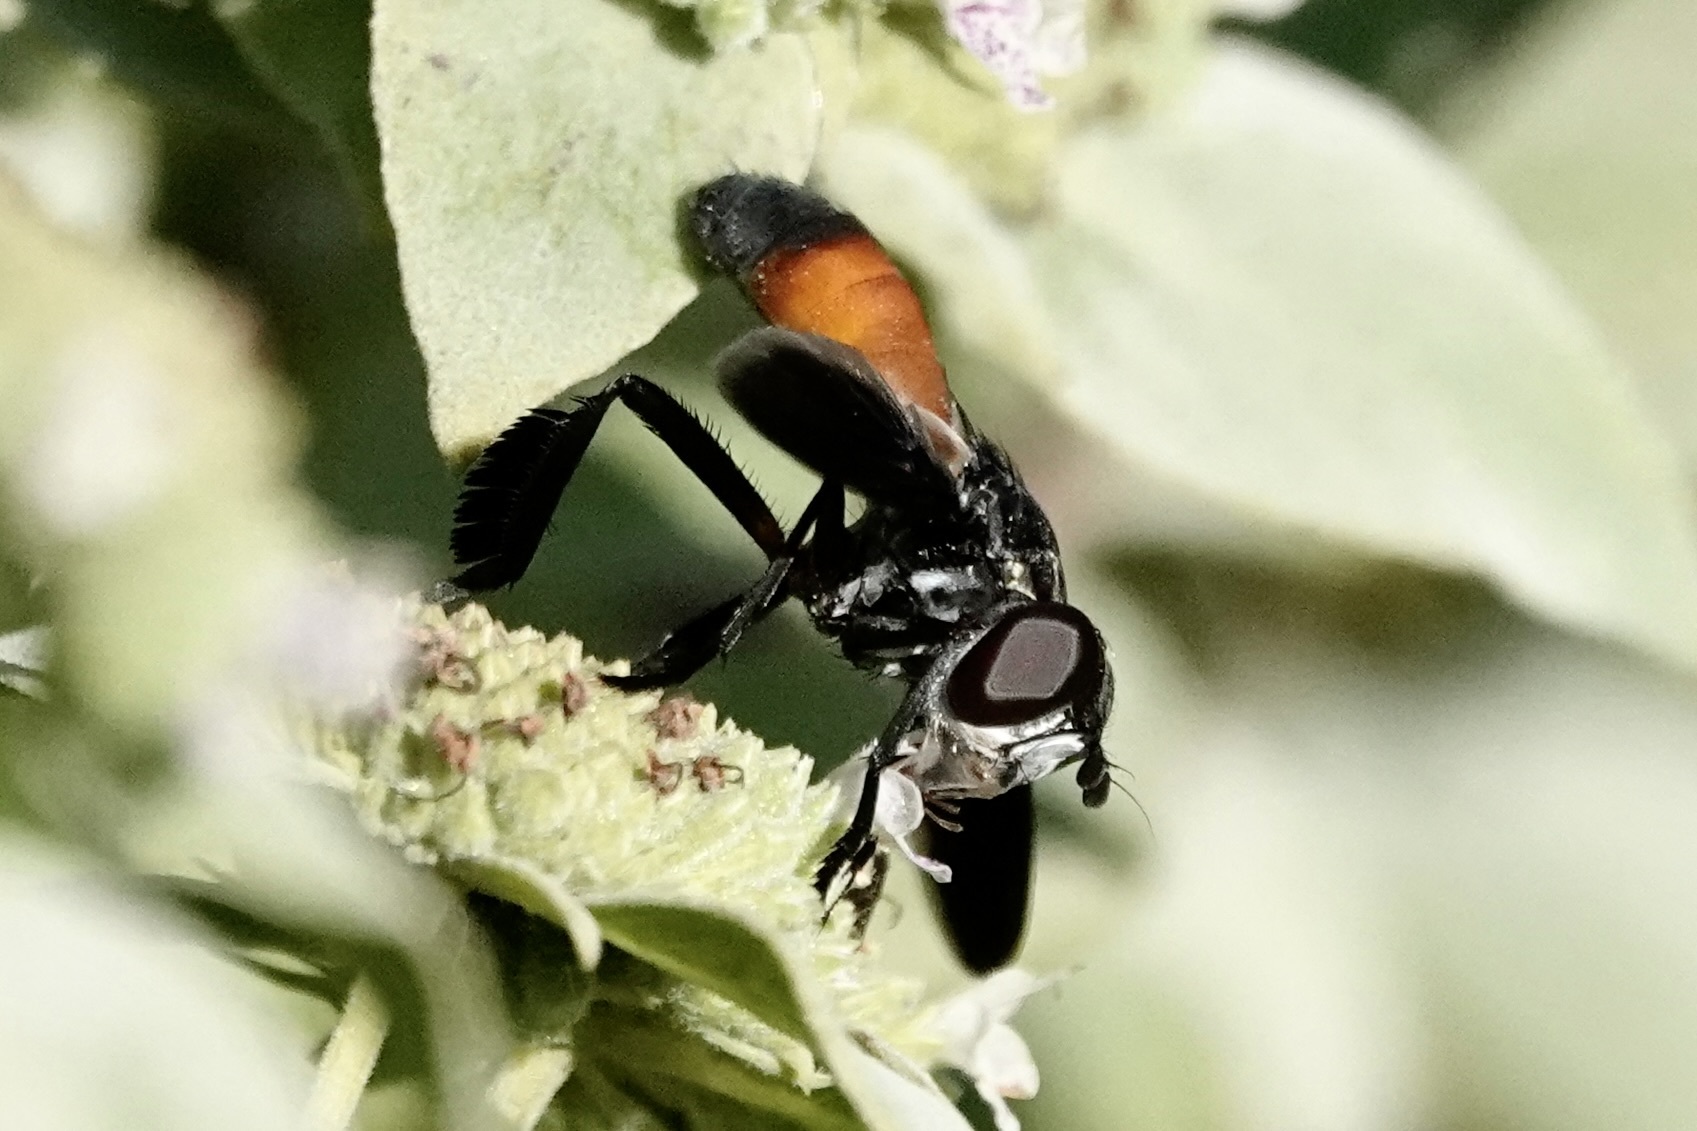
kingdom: Animalia
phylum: Arthropoda
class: Insecta
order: Diptera
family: Tachinidae
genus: Trichopoda
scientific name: Trichopoda pennipes
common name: Tachinid fly
